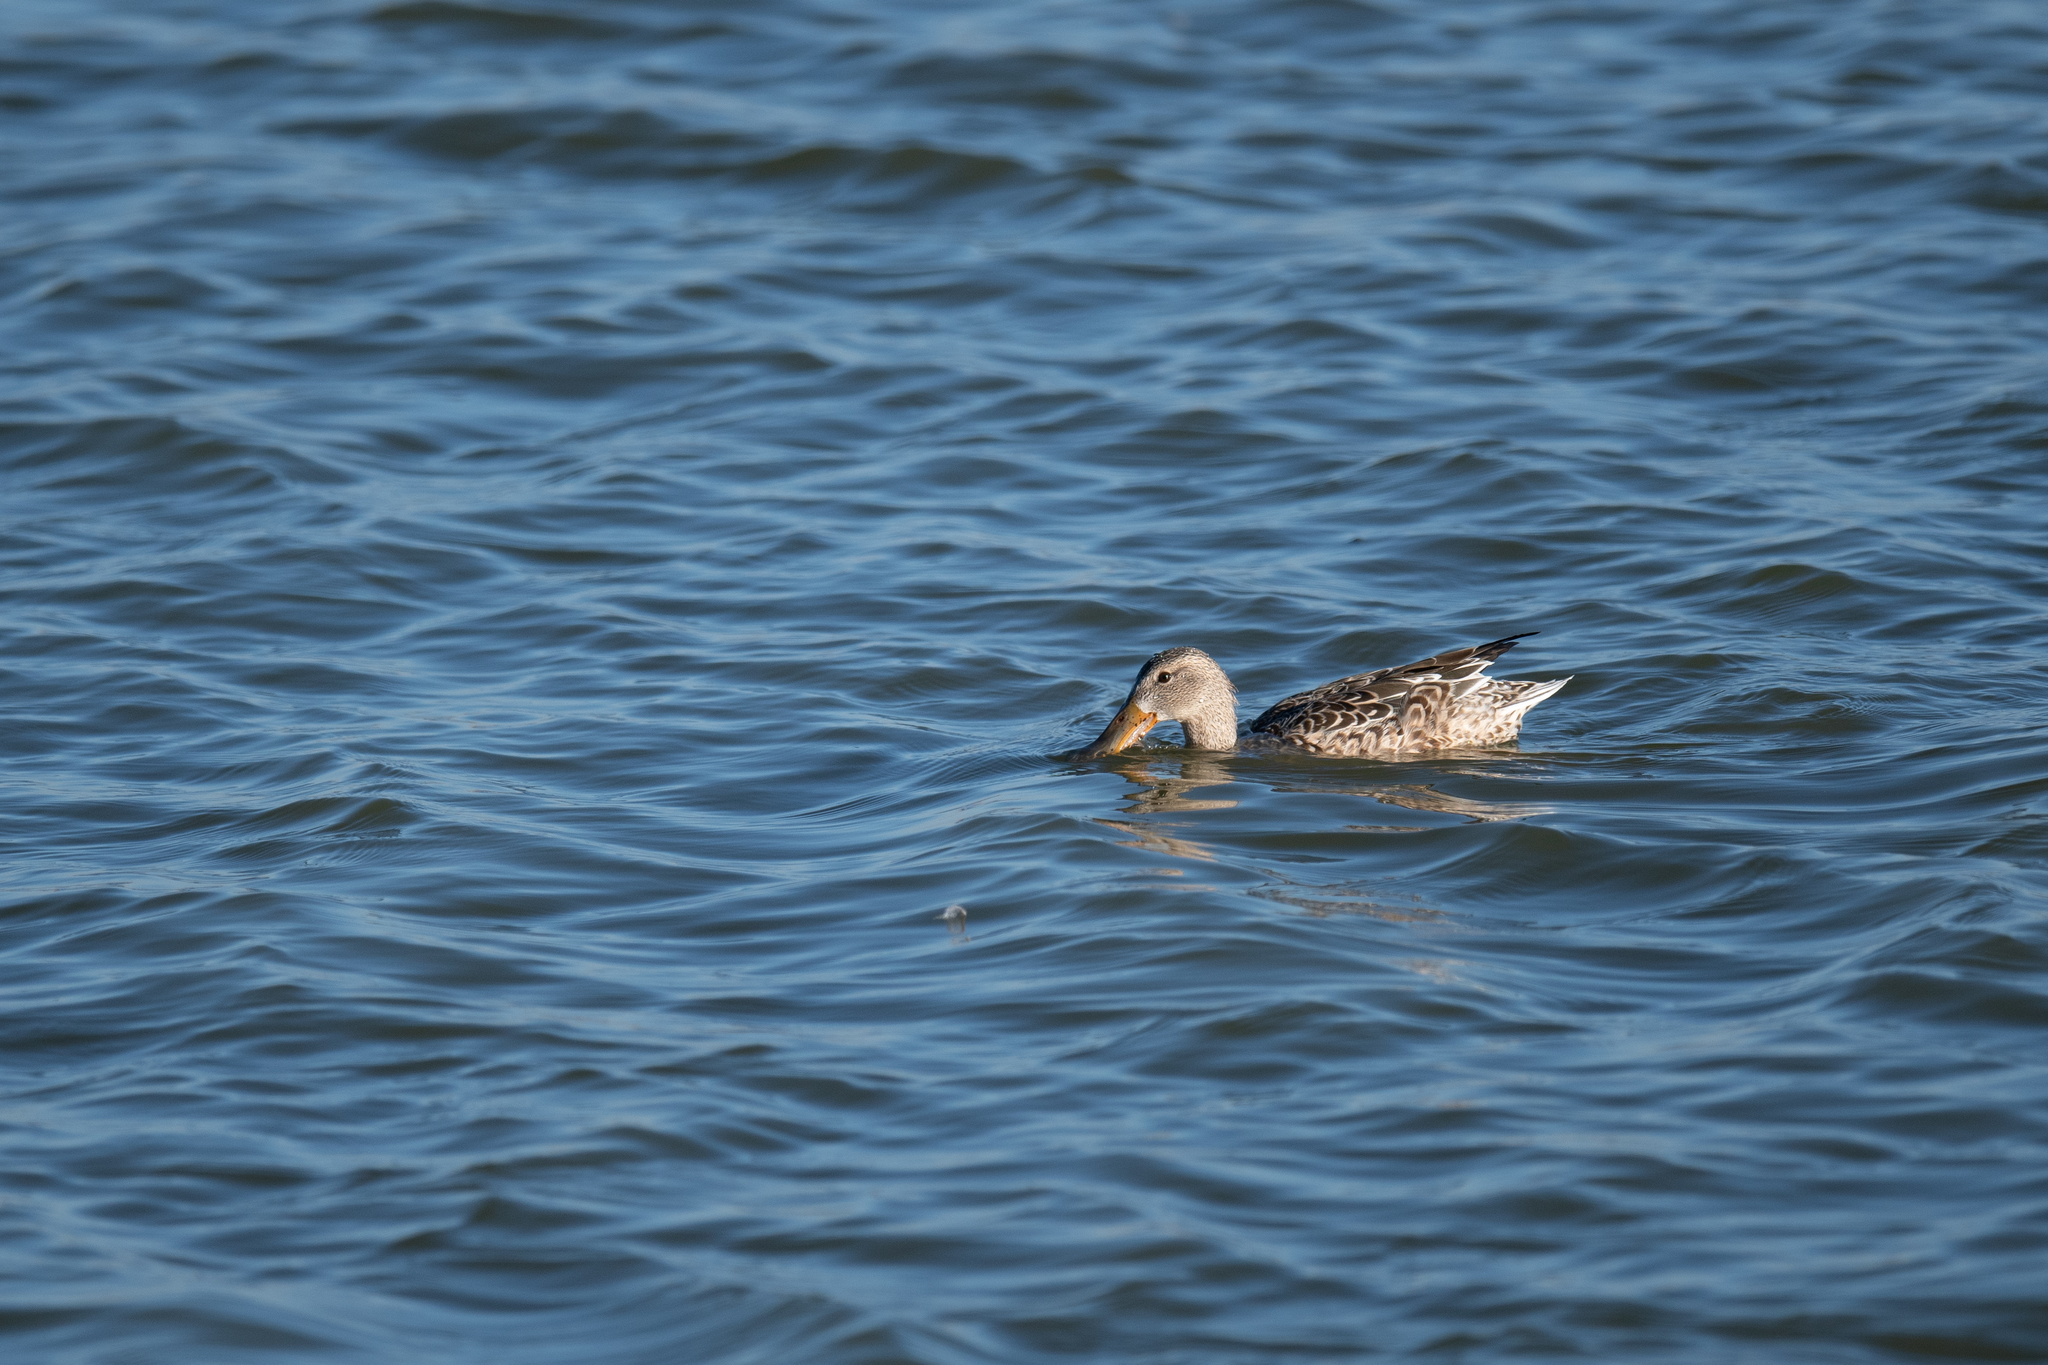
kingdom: Animalia
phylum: Chordata
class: Aves
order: Anseriformes
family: Anatidae
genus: Spatula
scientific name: Spatula clypeata
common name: Northern shoveler
